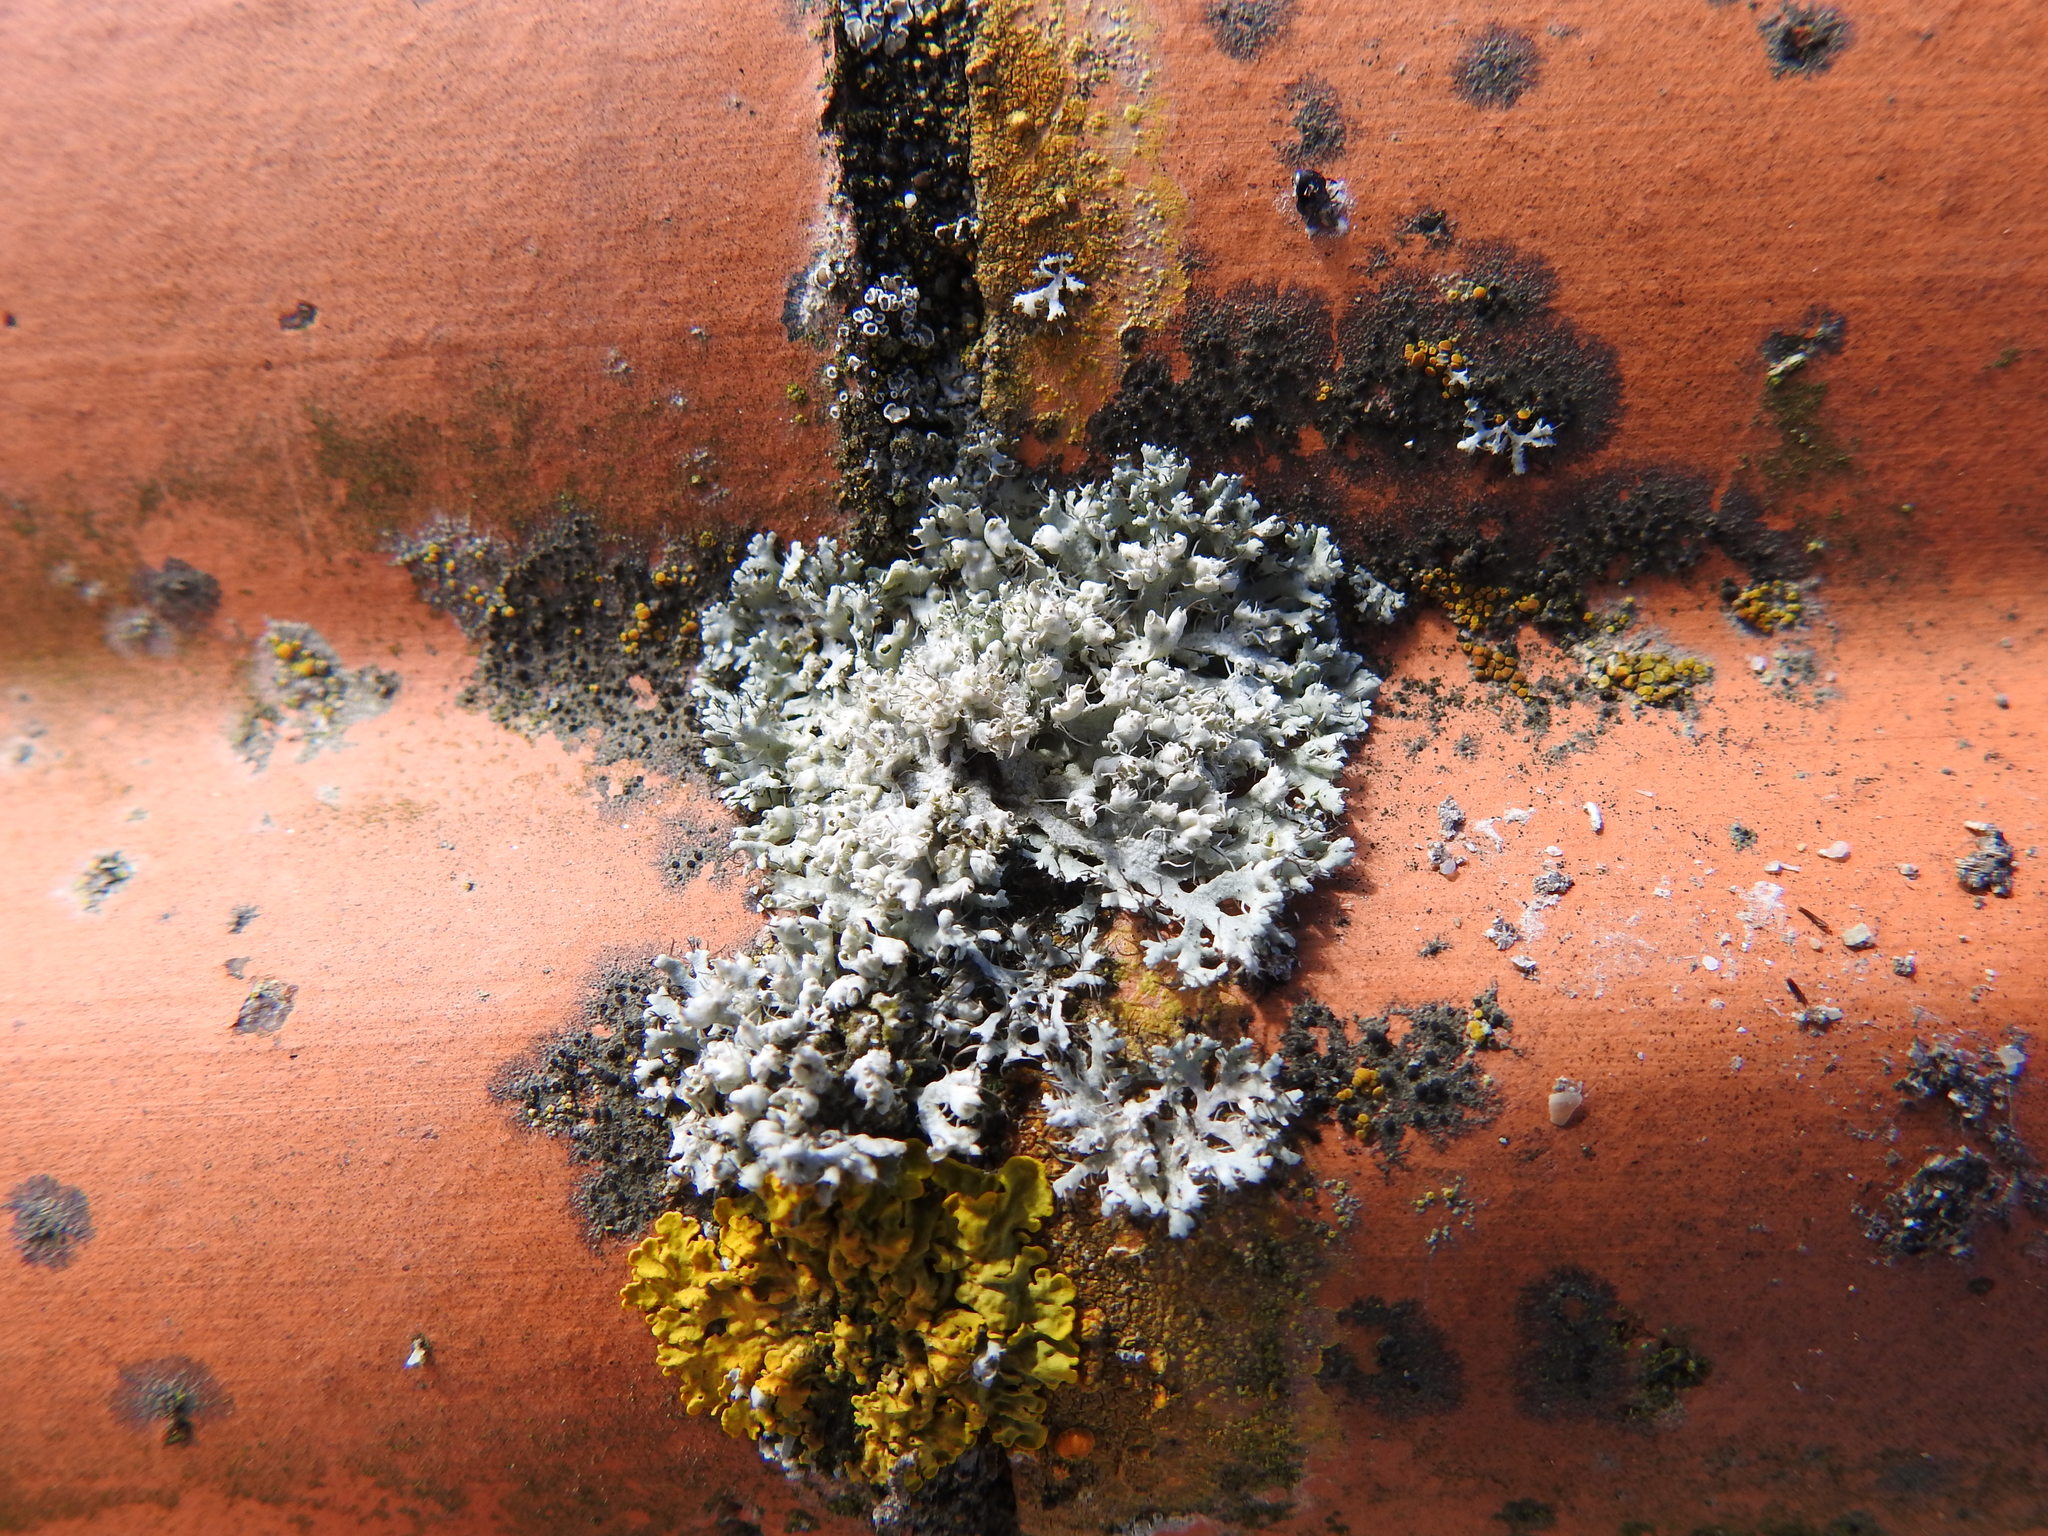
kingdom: Fungi
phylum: Ascomycota
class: Lecanoromycetes
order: Caliciales
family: Physciaceae
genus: Physcia
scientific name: Physcia adscendens
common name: Hooded rosette lichen
